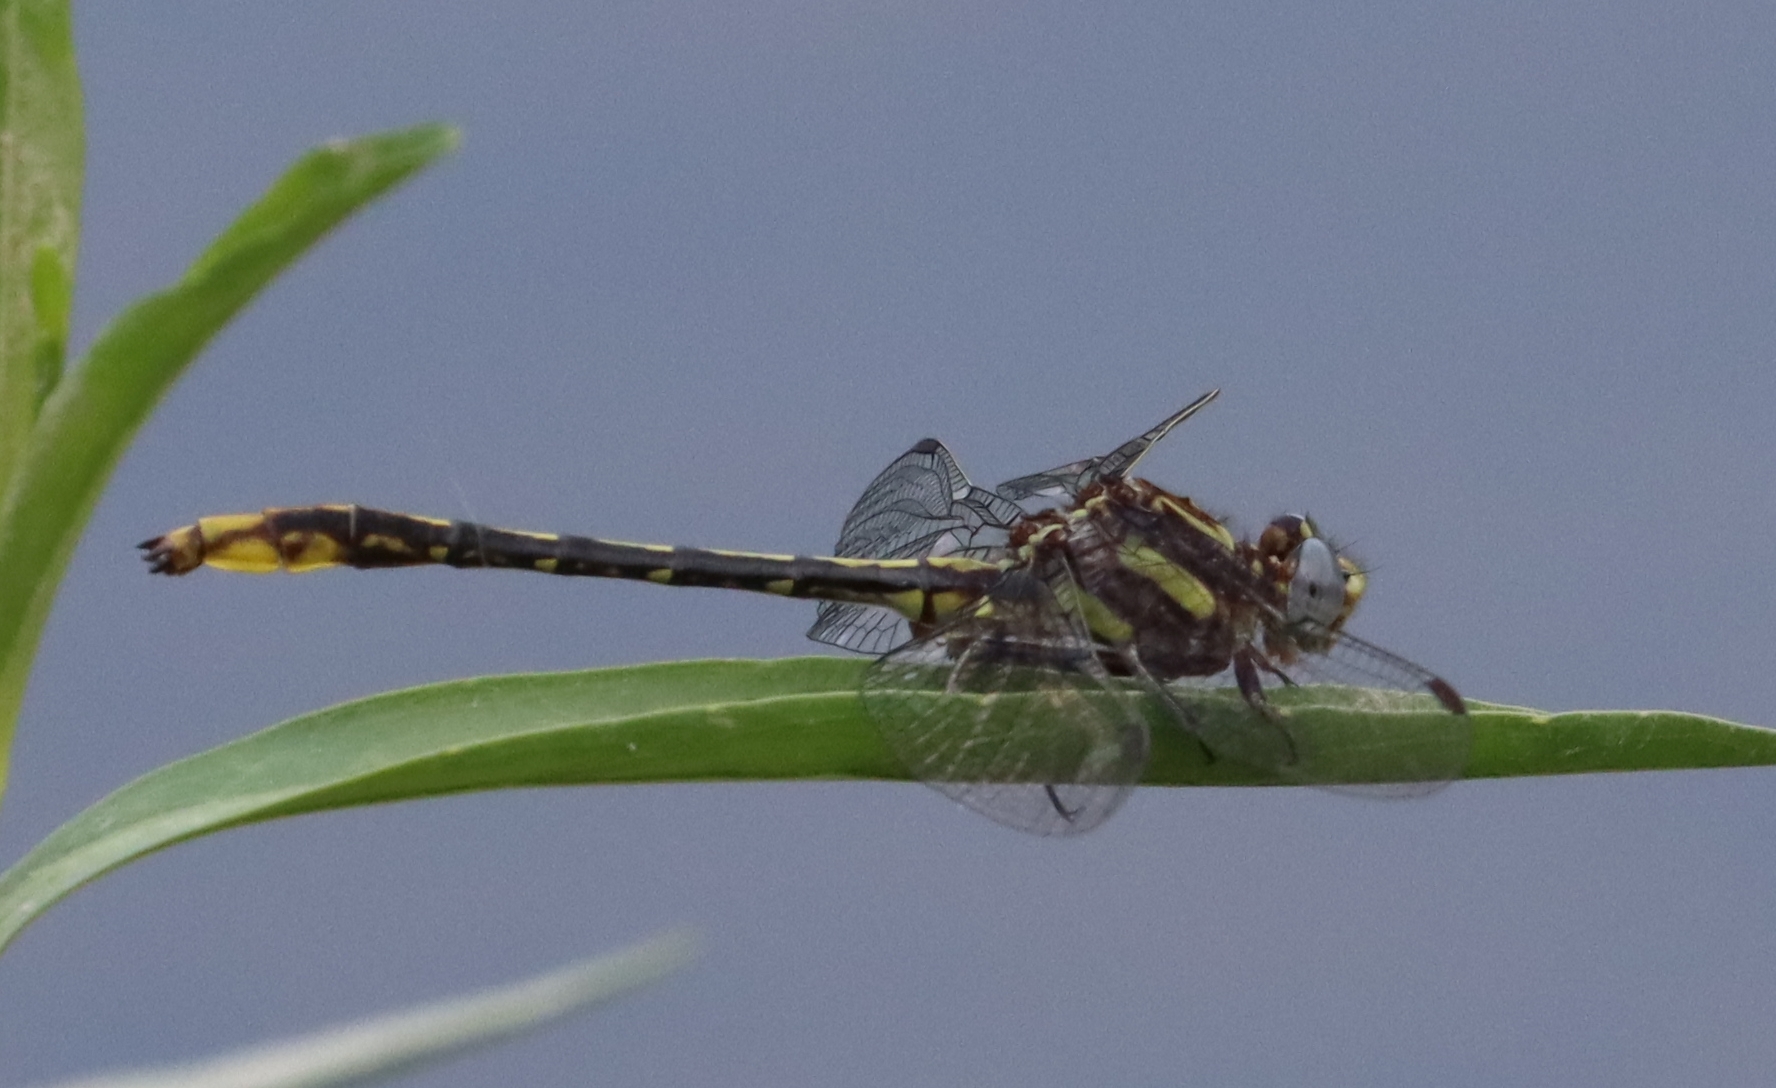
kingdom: Animalia
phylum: Arthropoda
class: Insecta
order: Odonata
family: Gomphidae
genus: Phanogomphus
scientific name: Phanogomphus exilis
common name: Lancet clubtail
